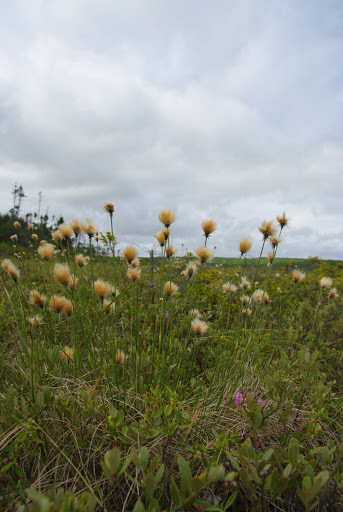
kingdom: Plantae
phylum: Tracheophyta
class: Liliopsida
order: Poales
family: Cyperaceae
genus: Eriophorum
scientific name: Eriophorum chamissonis
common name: Chamisso's cottongrass
